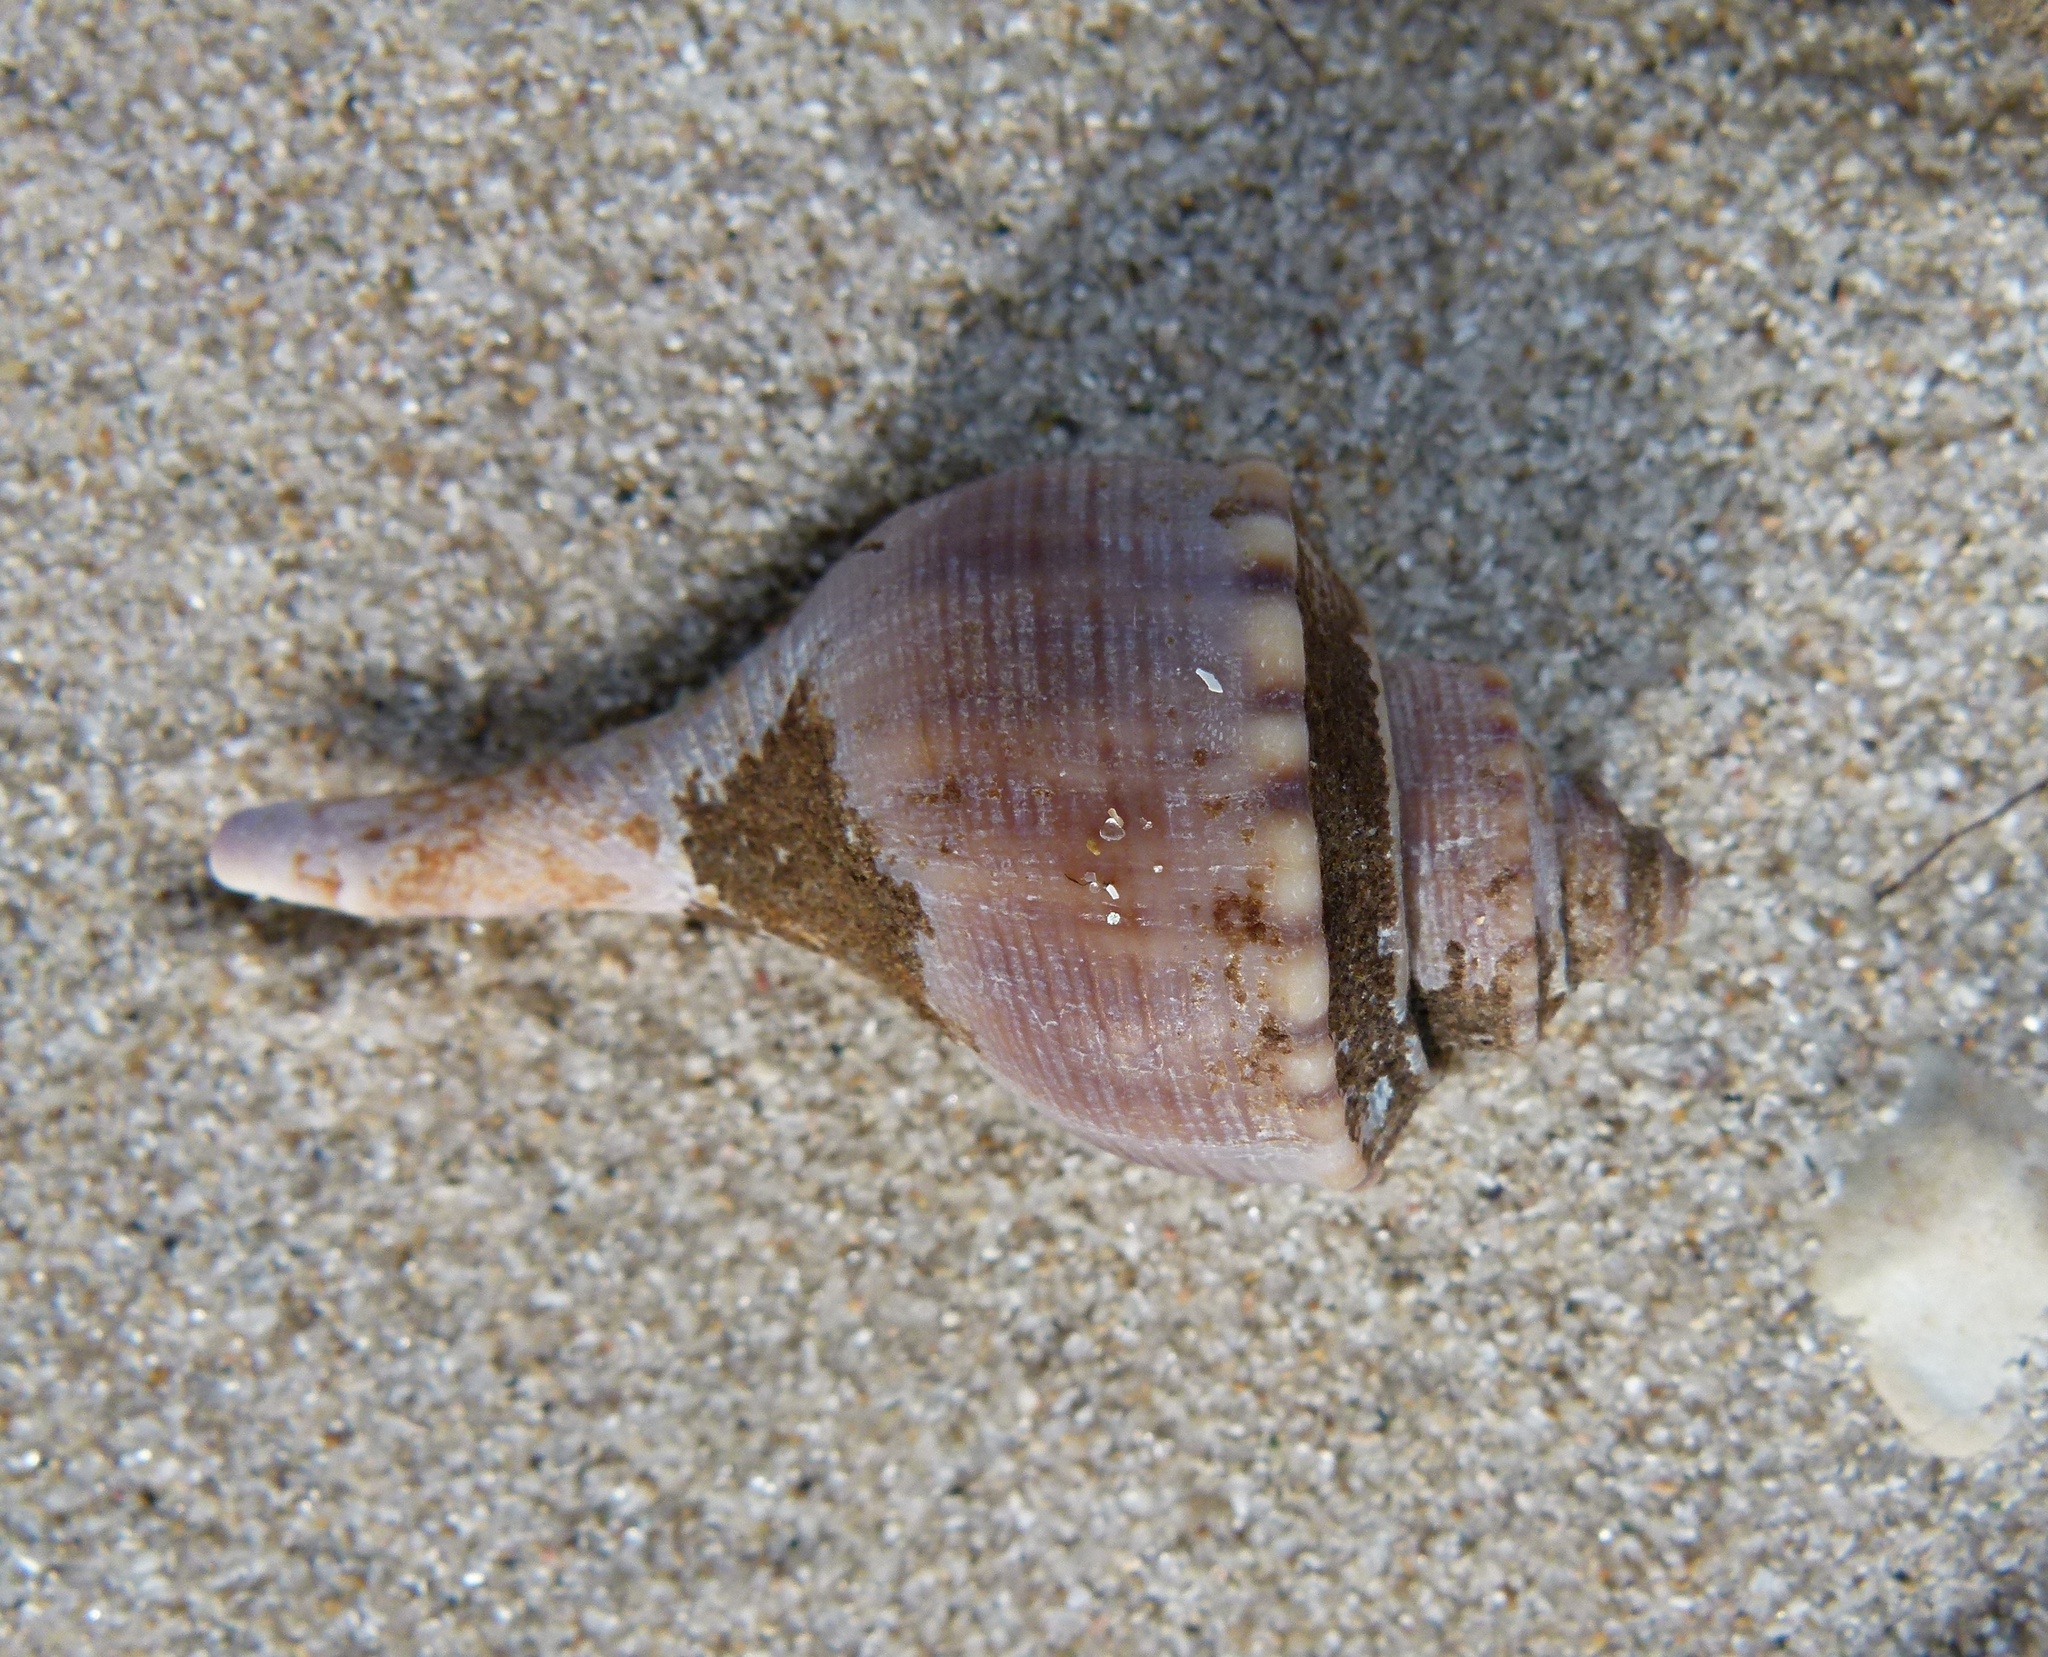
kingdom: Animalia
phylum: Mollusca
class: Gastropoda
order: Neogastropoda
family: Busyconidae
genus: Busycotypus
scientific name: Busycotypus canaliculatus
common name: Channeled whelk
